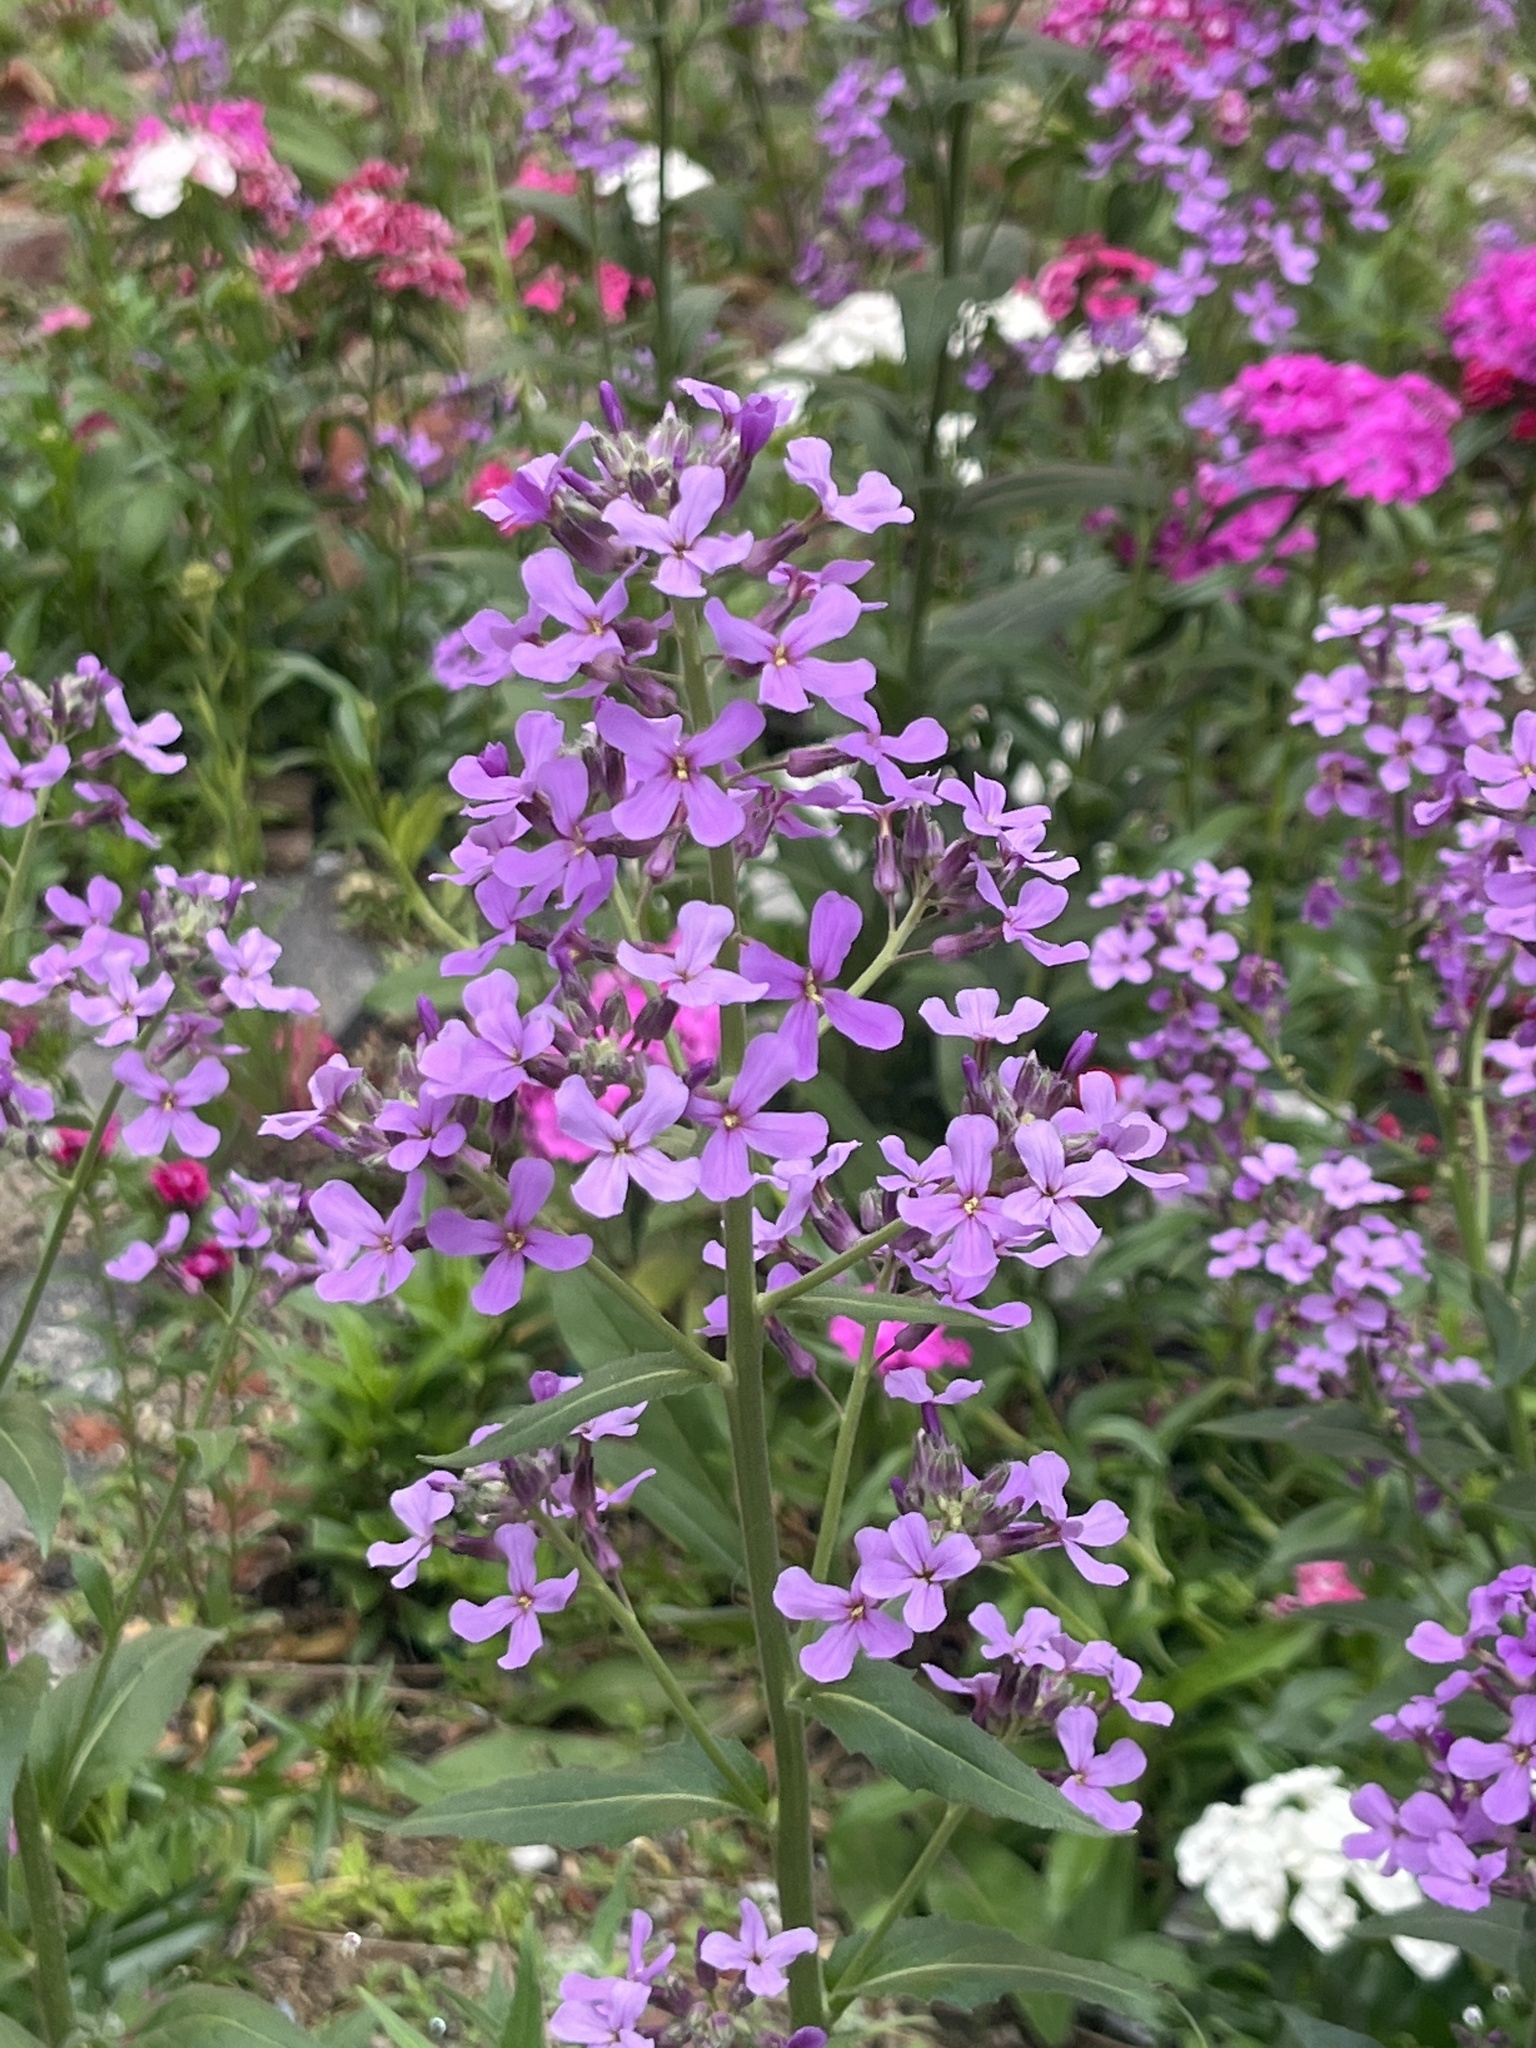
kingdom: Plantae
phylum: Tracheophyta
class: Magnoliopsida
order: Brassicales
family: Brassicaceae
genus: Hesperis
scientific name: Hesperis matronalis
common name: Dame's-violet
